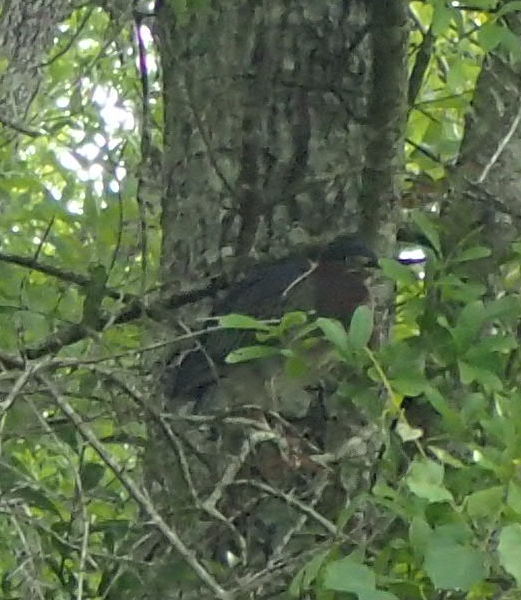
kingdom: Animalia
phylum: Chordata
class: Aves
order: Pelecaniformes
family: Ardeidae
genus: Butorides
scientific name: Butorides virescens
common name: Green heron
